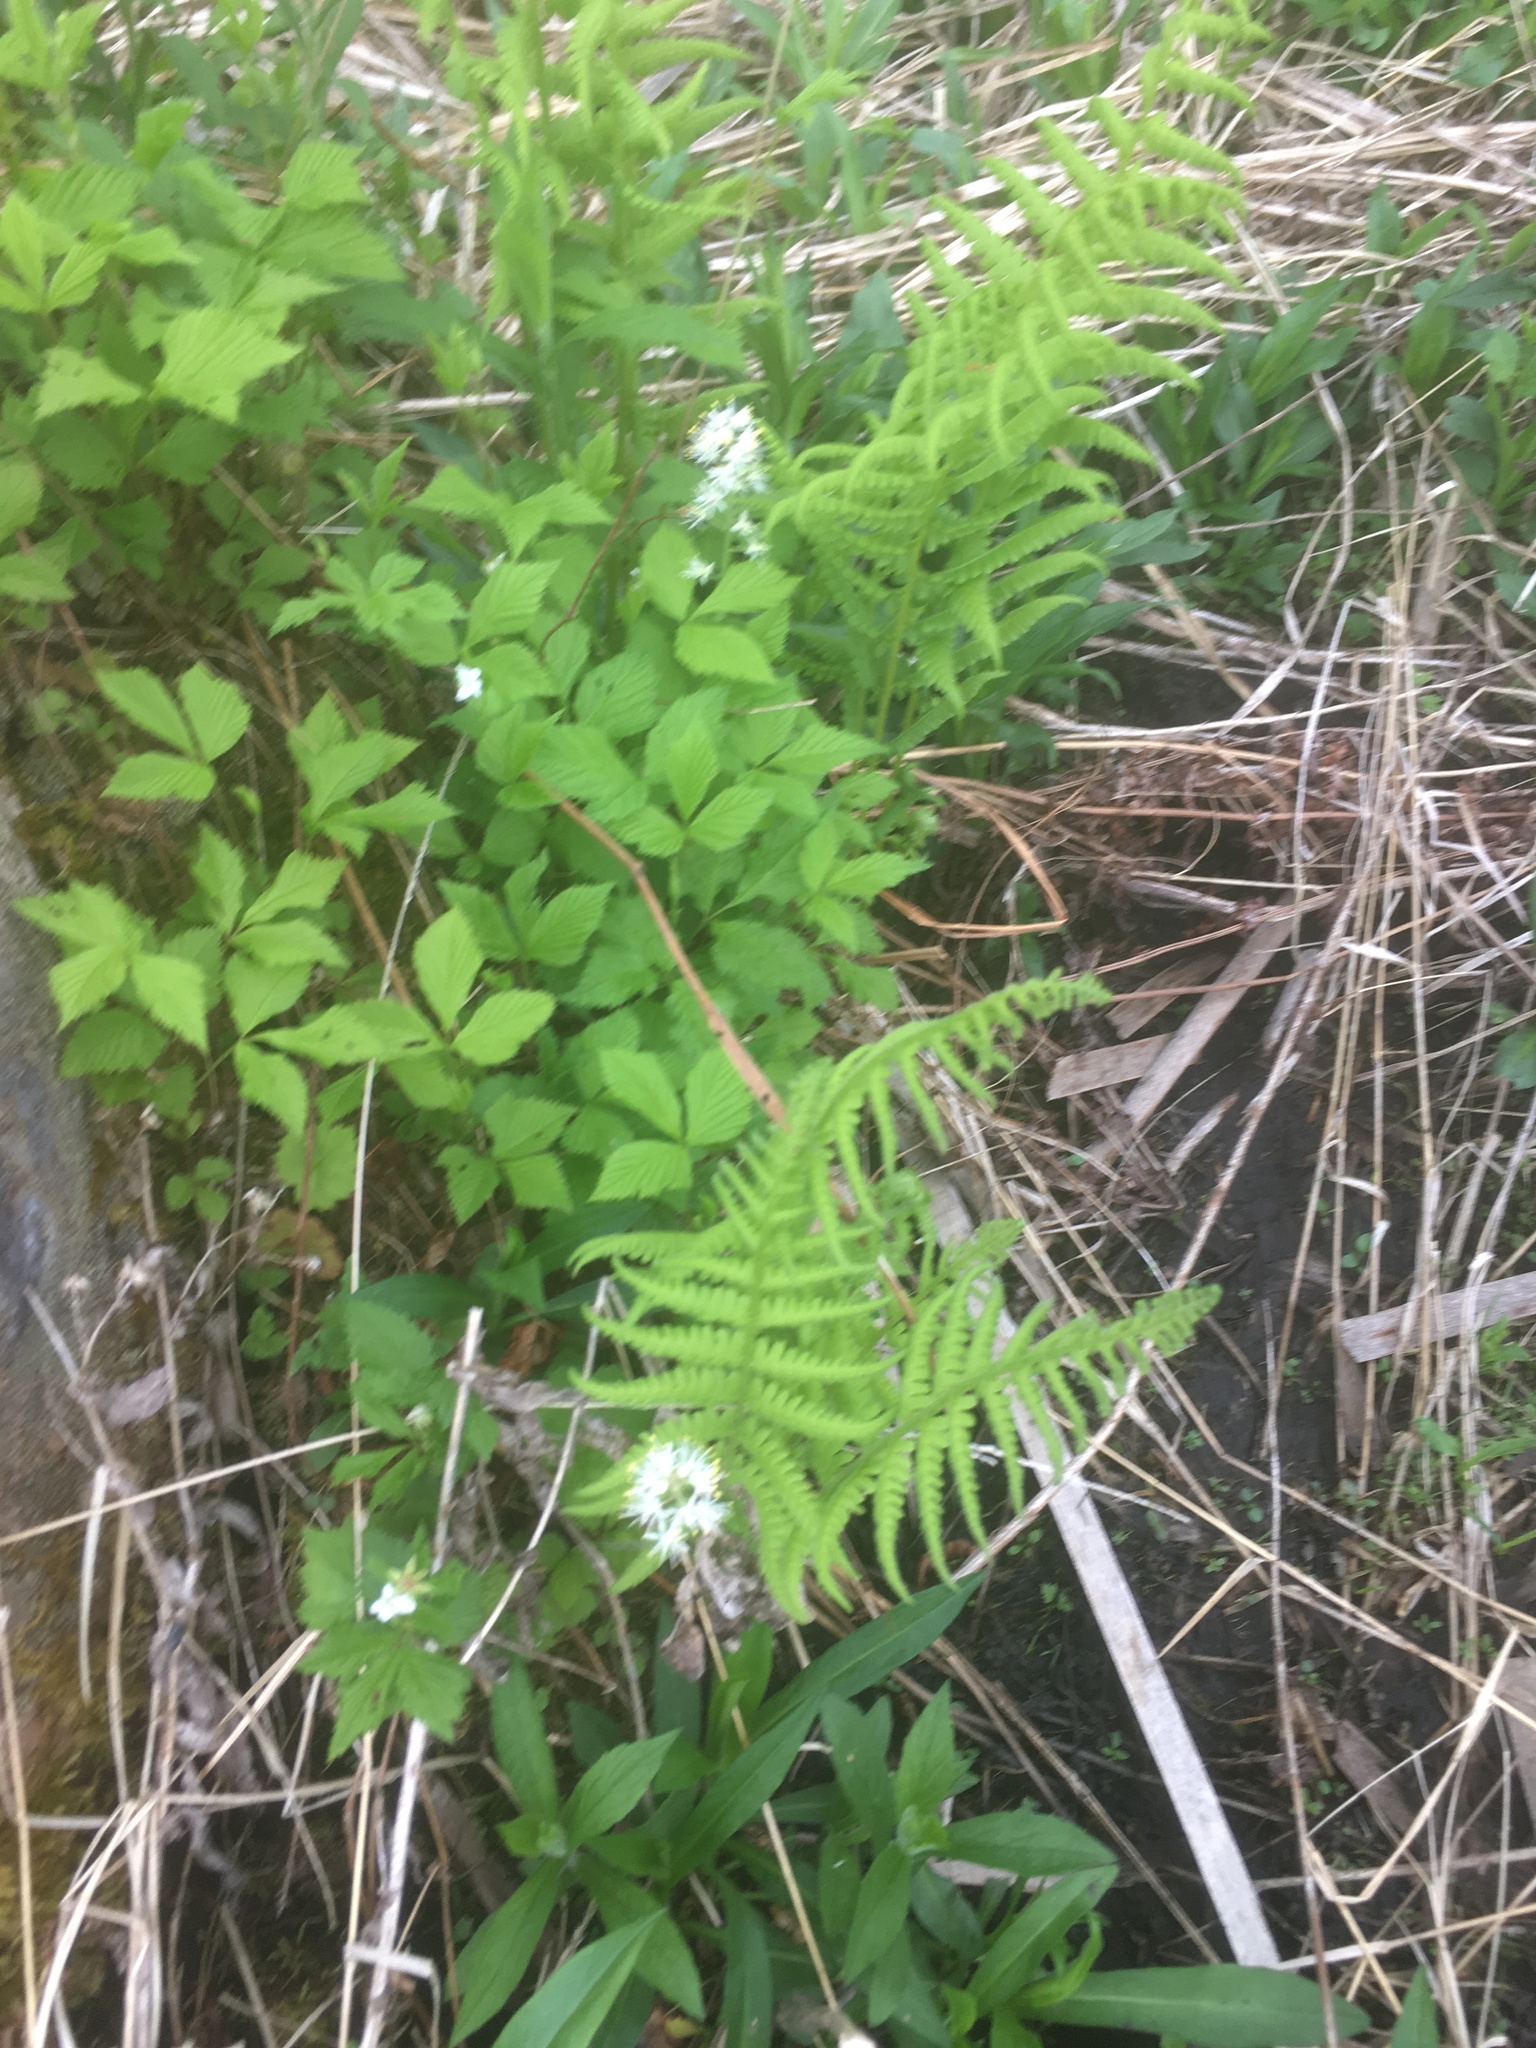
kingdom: Plantae
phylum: Tracheophyta
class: Polypodiopsida
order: Polypodiales
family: Thelypteridaceae
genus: Thelypteris
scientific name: Thelypteris palustris
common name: Marsh fern
